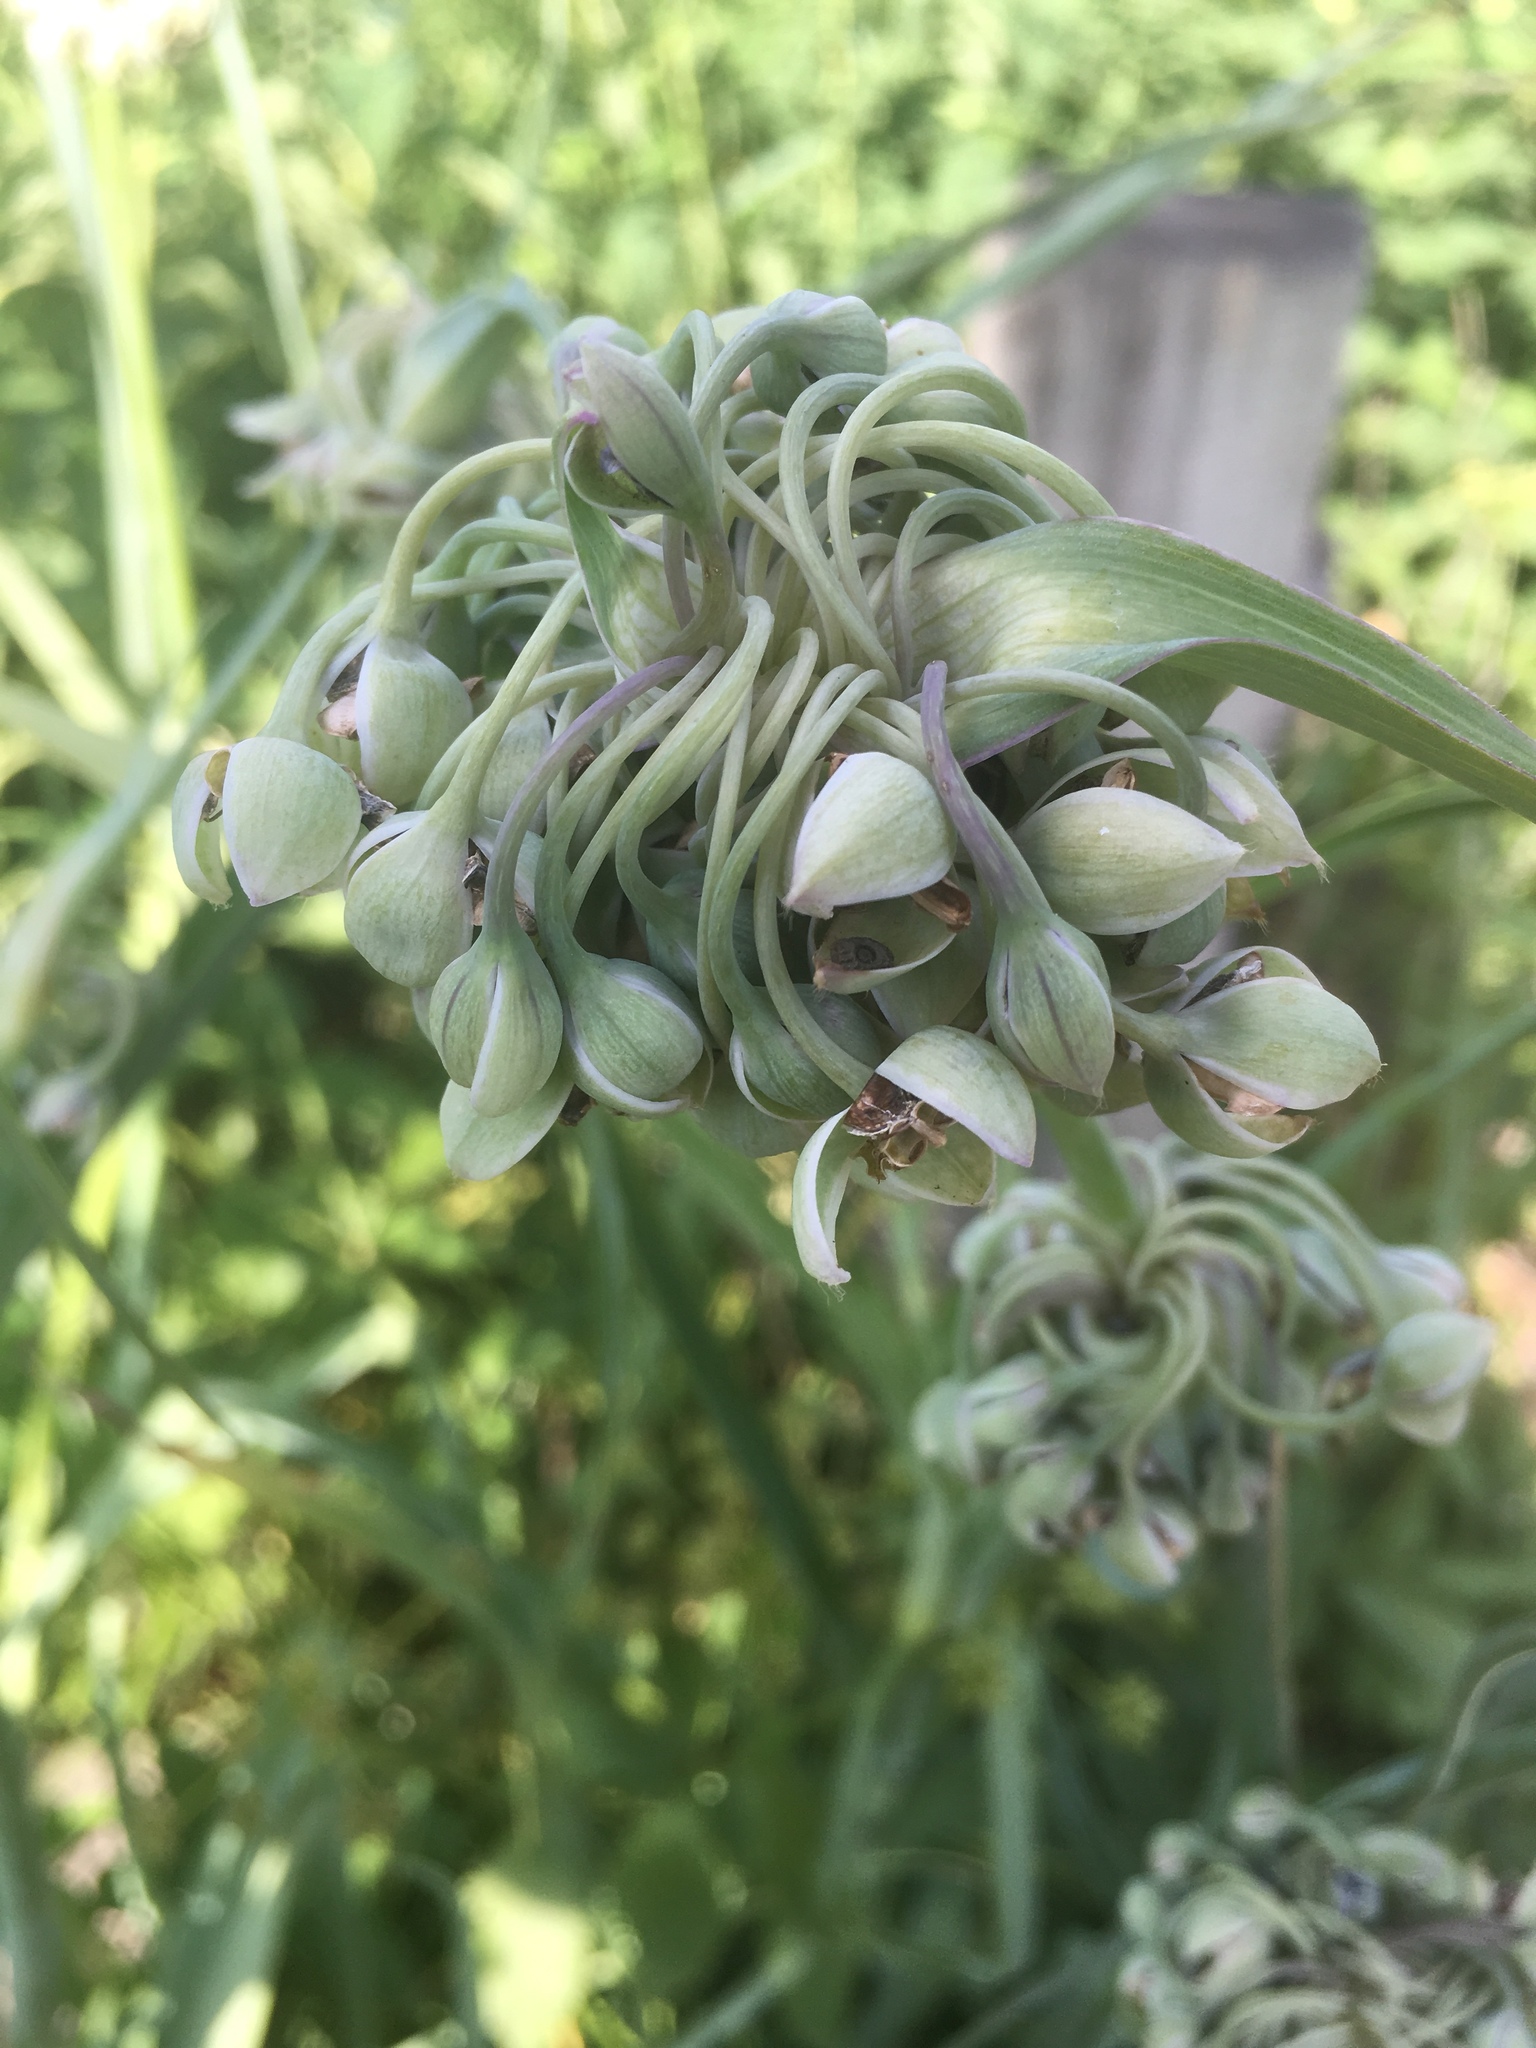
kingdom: Plantae
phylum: Tracheophyta
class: Liliopsida
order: Commelinales
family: Commelinaceae
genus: Tradescantia
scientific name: Tradescantia ohiensis
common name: Ohio spiderwort
